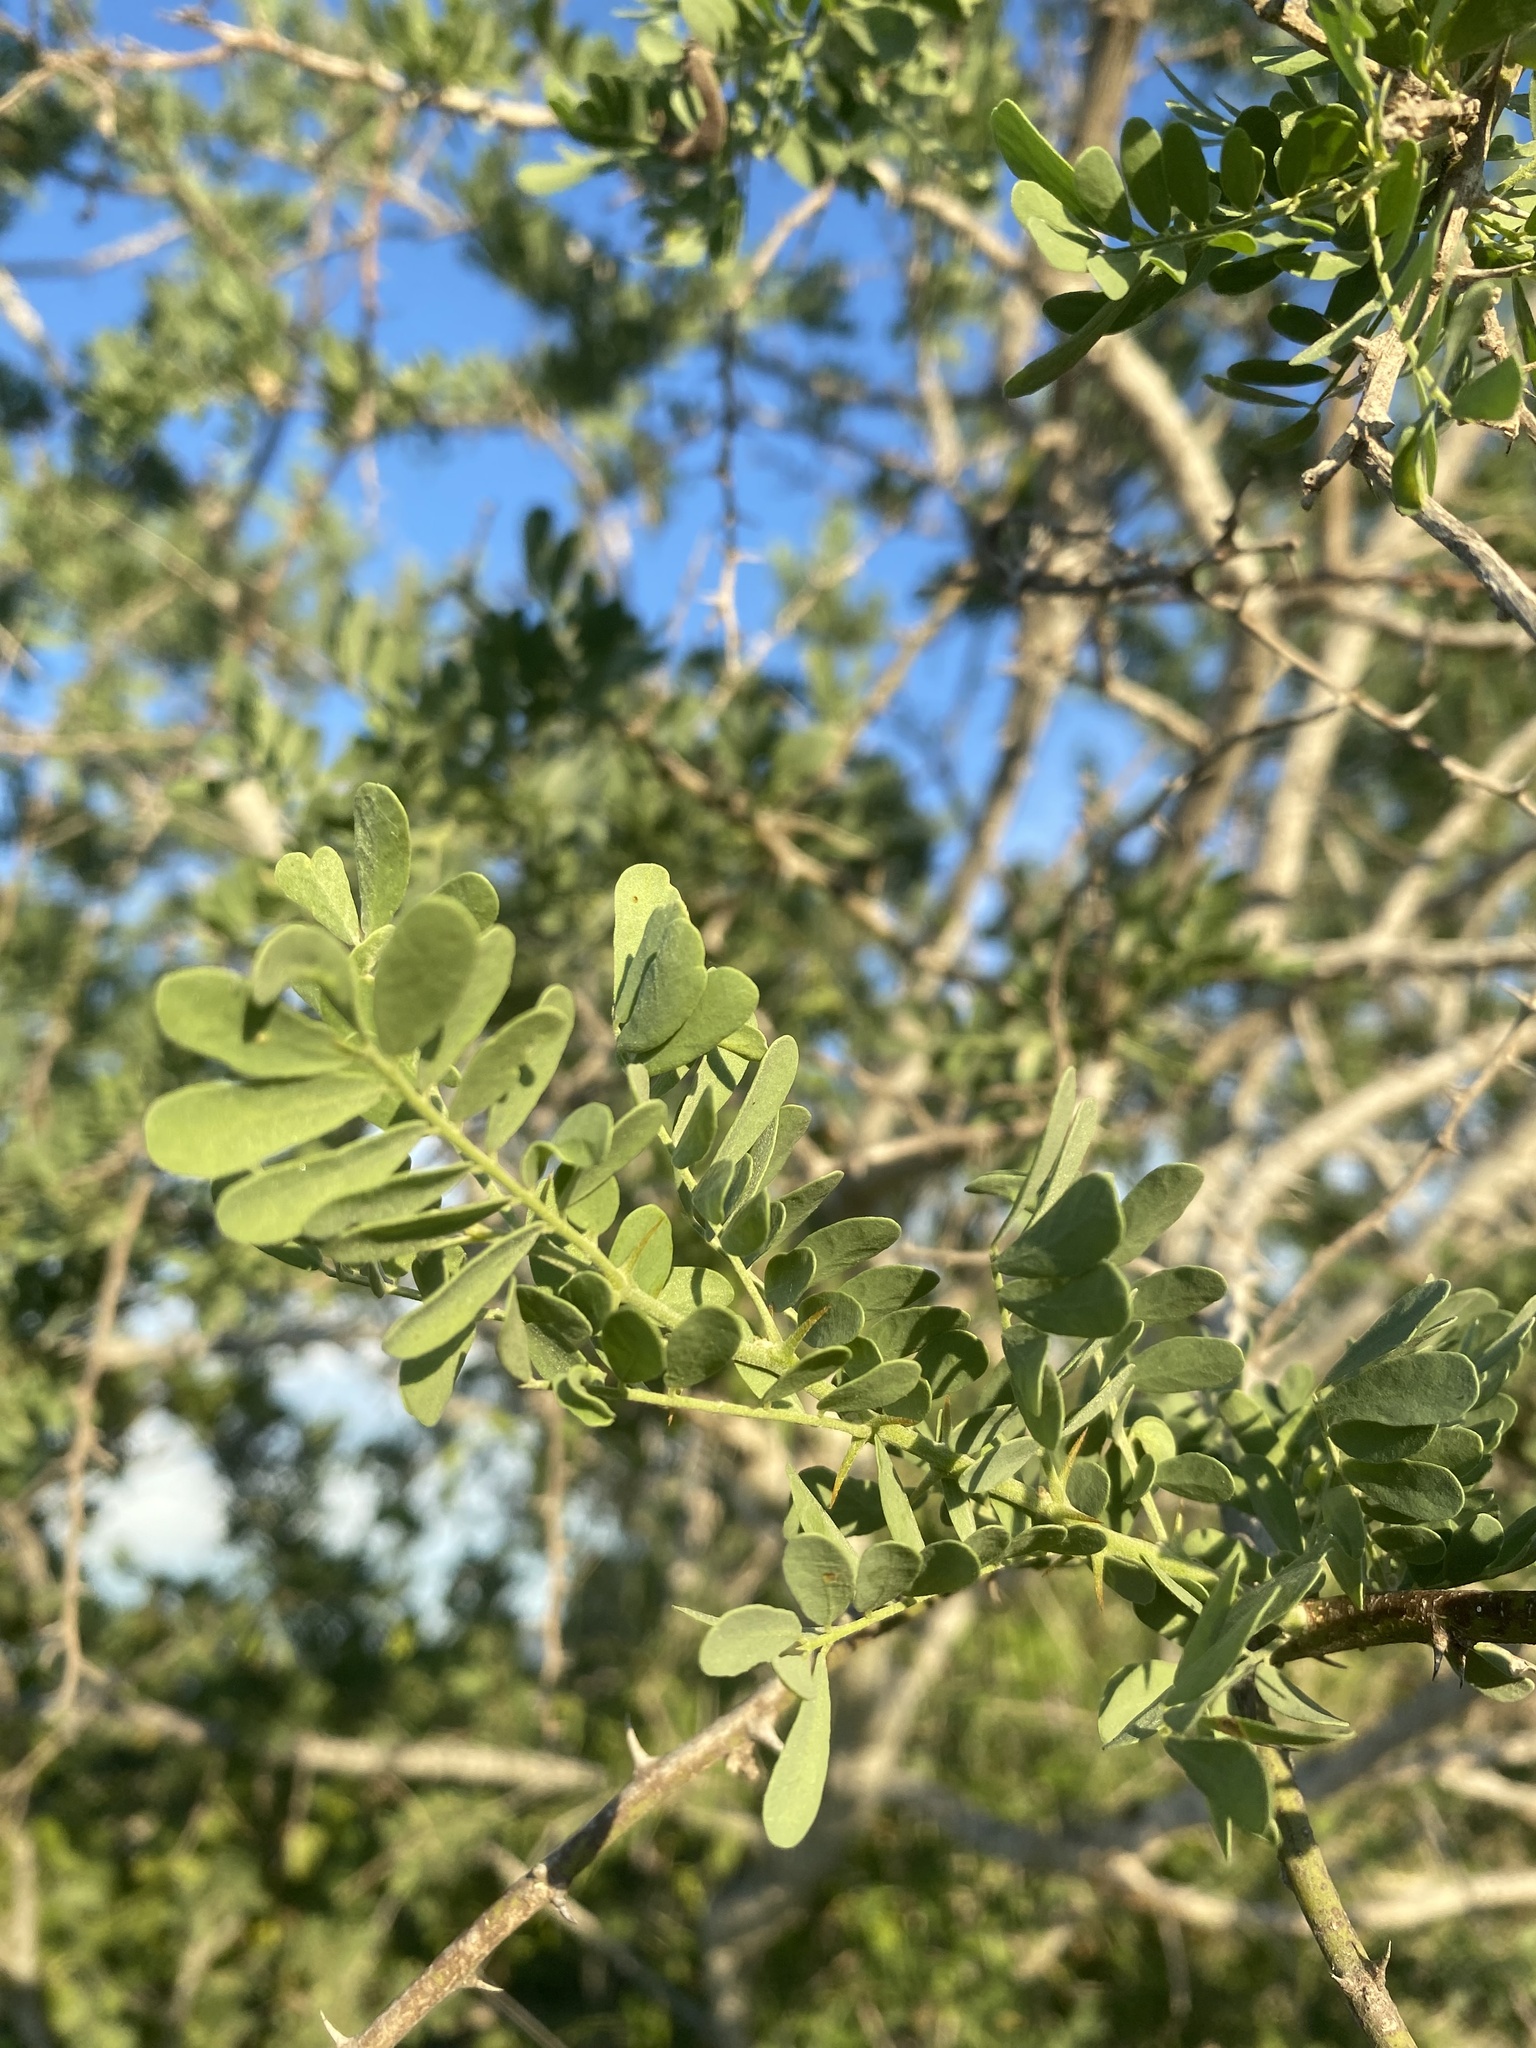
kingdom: Plantae
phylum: Tracheophyta
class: Magnoliopsida
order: Fabales
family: Fabaceae
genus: Olneya
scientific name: Olneya tesota
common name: Desert ironwood
